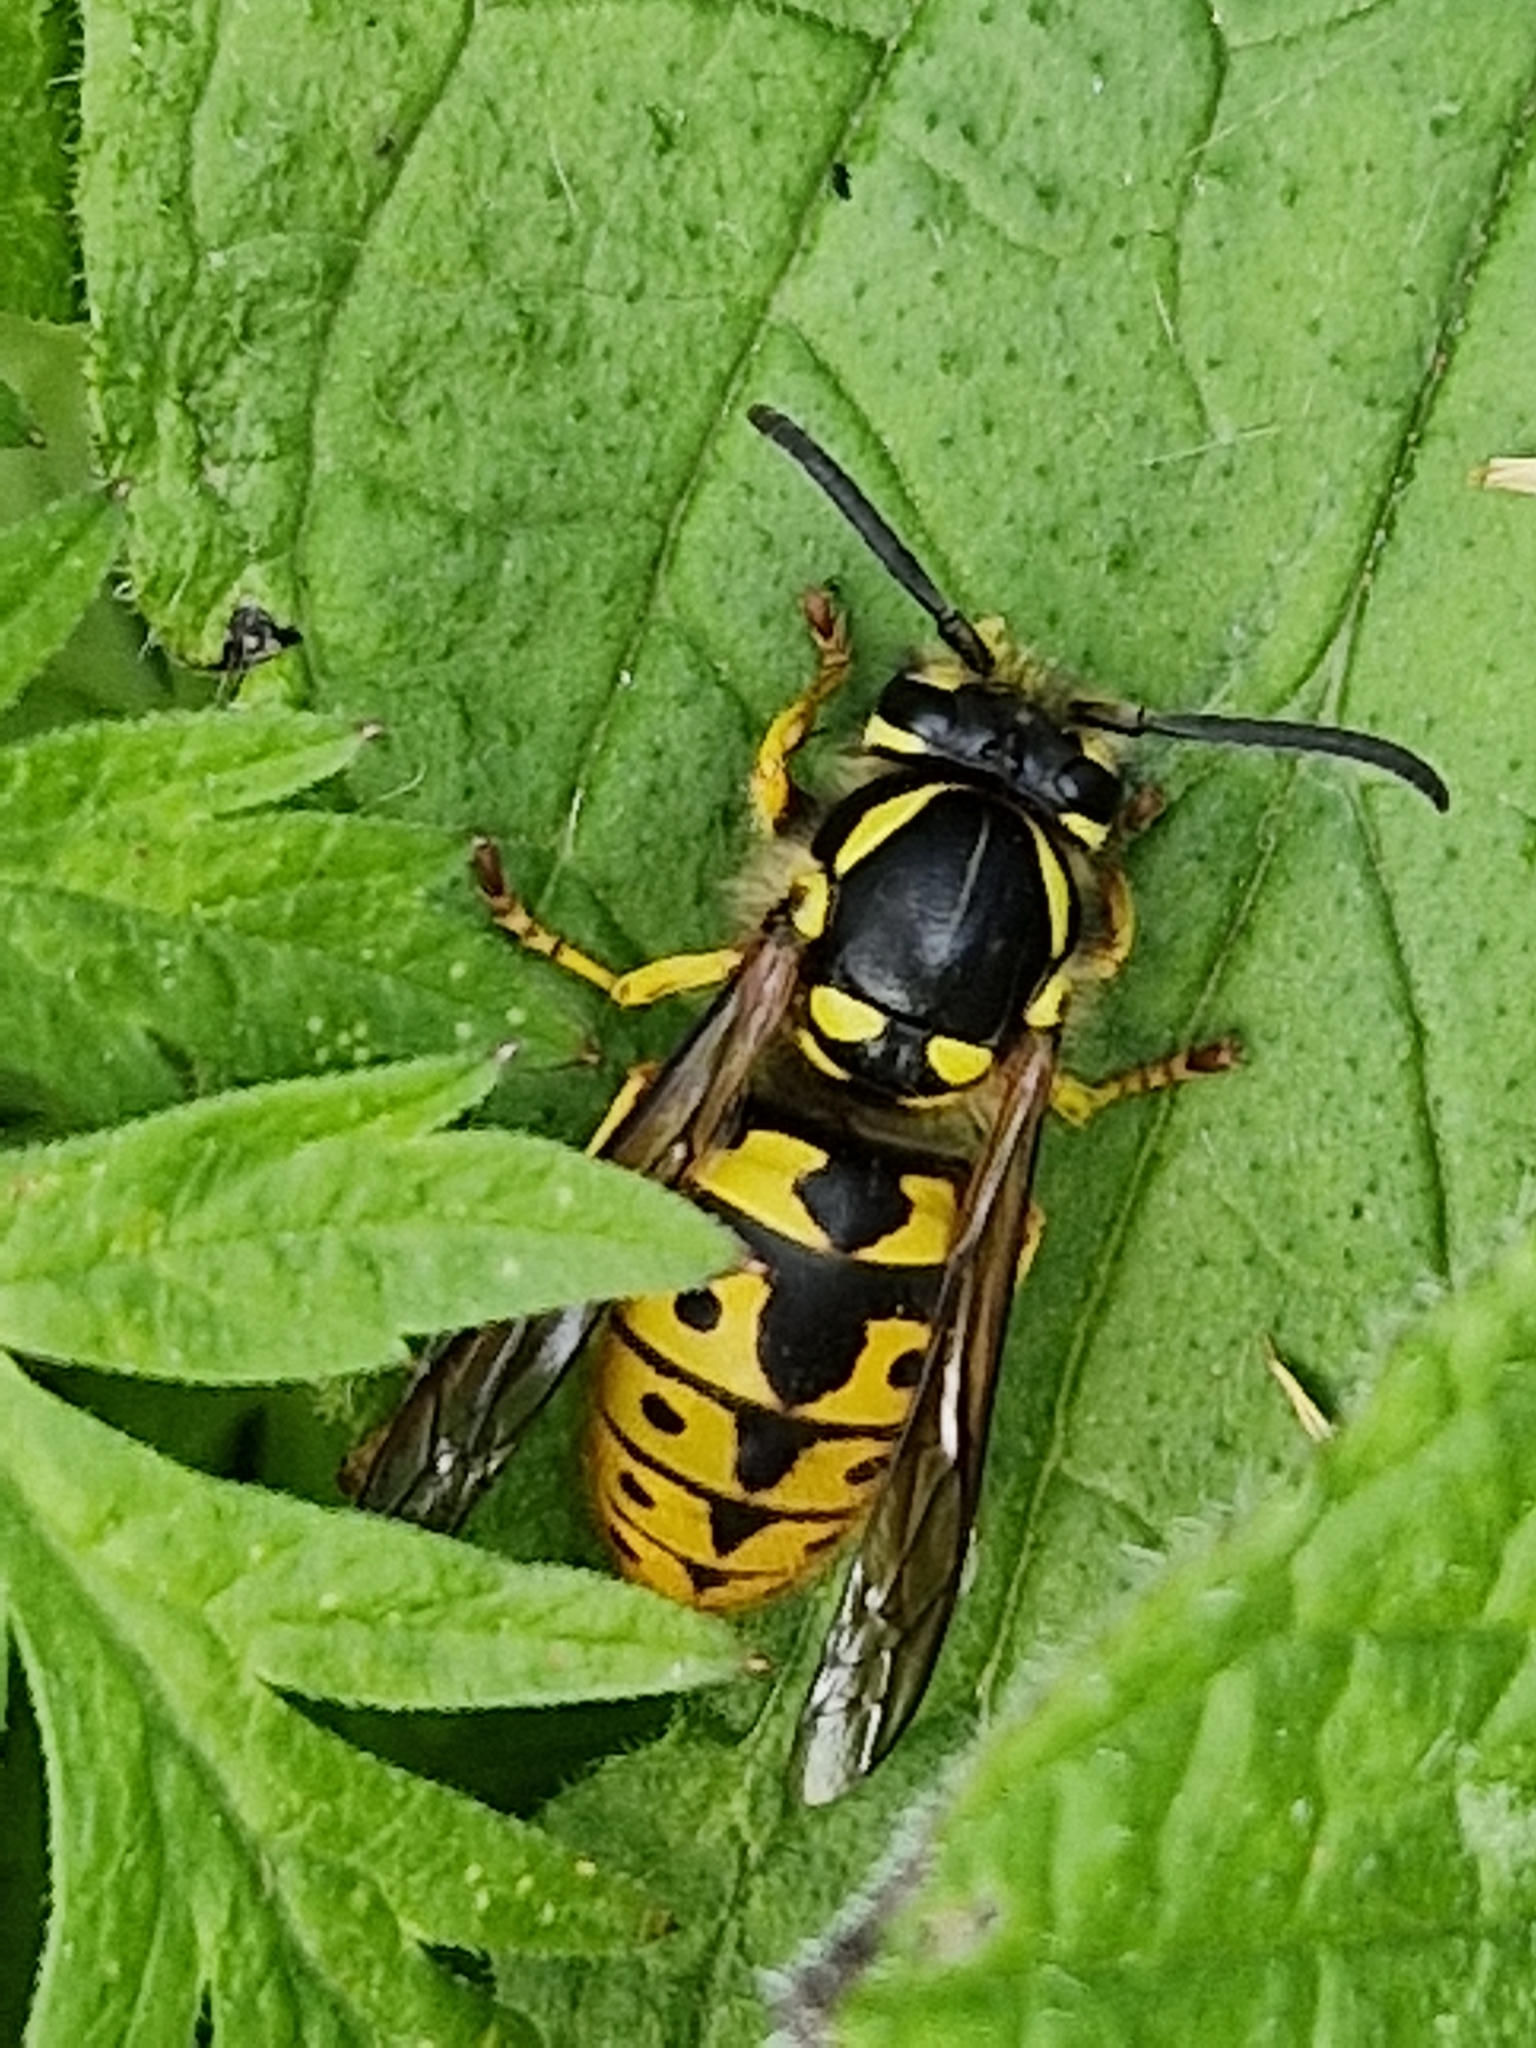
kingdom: Animalia
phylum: Arthropoda
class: Insecta
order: Hymenoptera
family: Vespidae
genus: Vespula
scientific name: Vespula germanica
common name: German wasp
